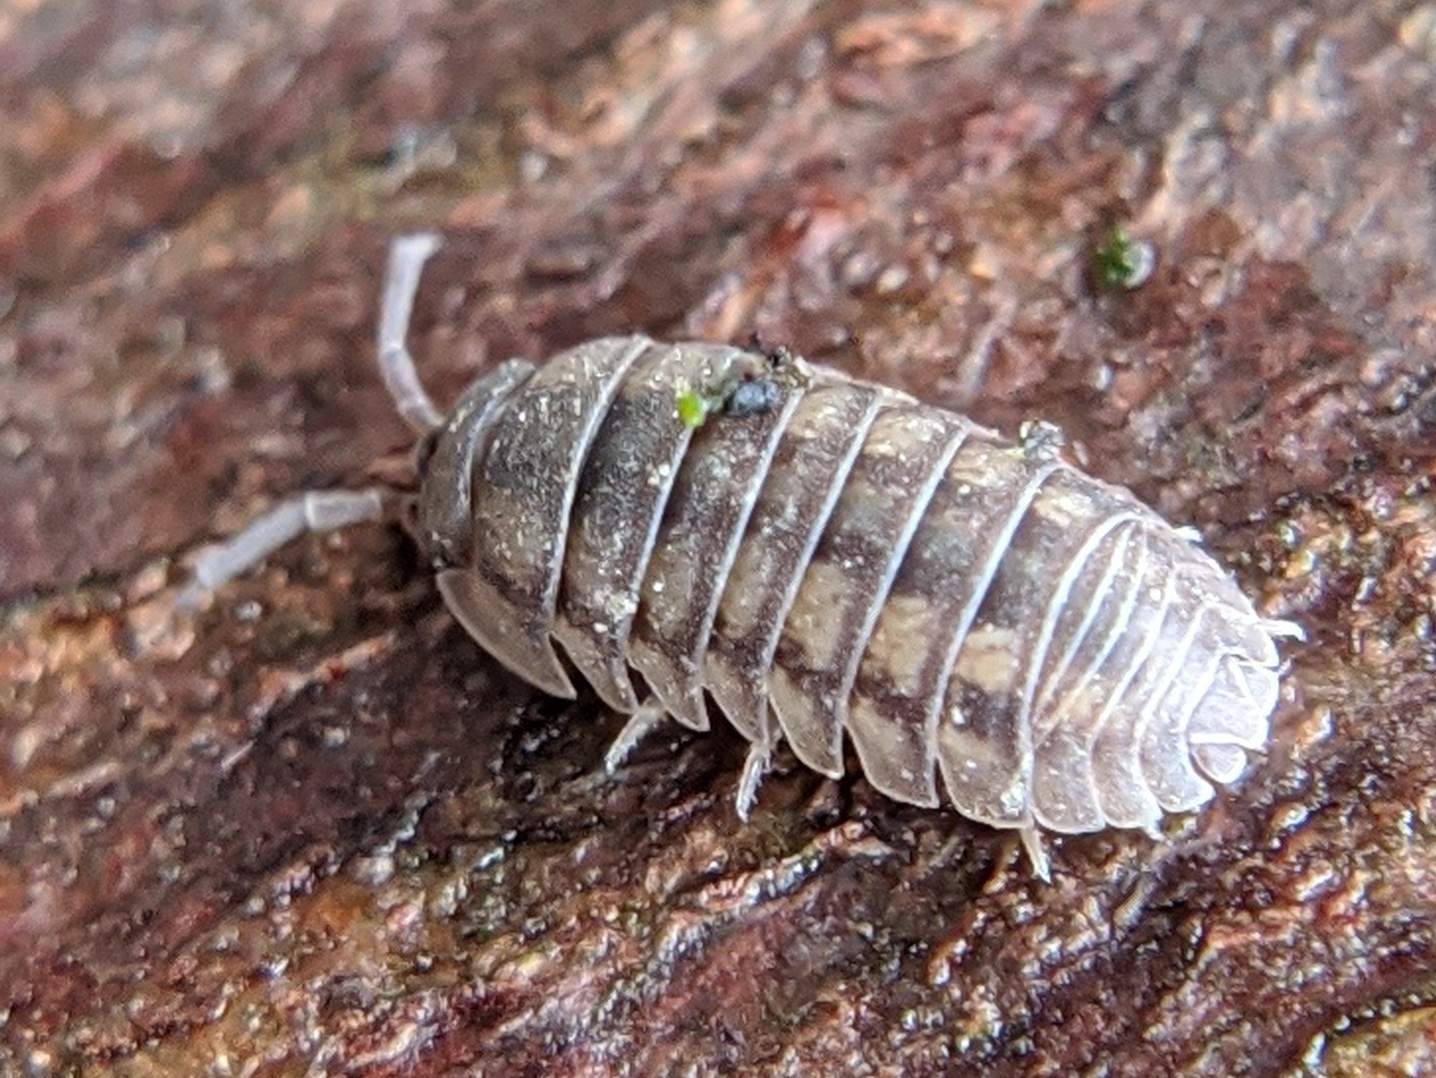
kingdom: Animalia
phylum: Arthropoda
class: Malacostraca
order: Isopoda
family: Armadillidiidae
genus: Armadillidium
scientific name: Armadillidium nasatum
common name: Isopod
